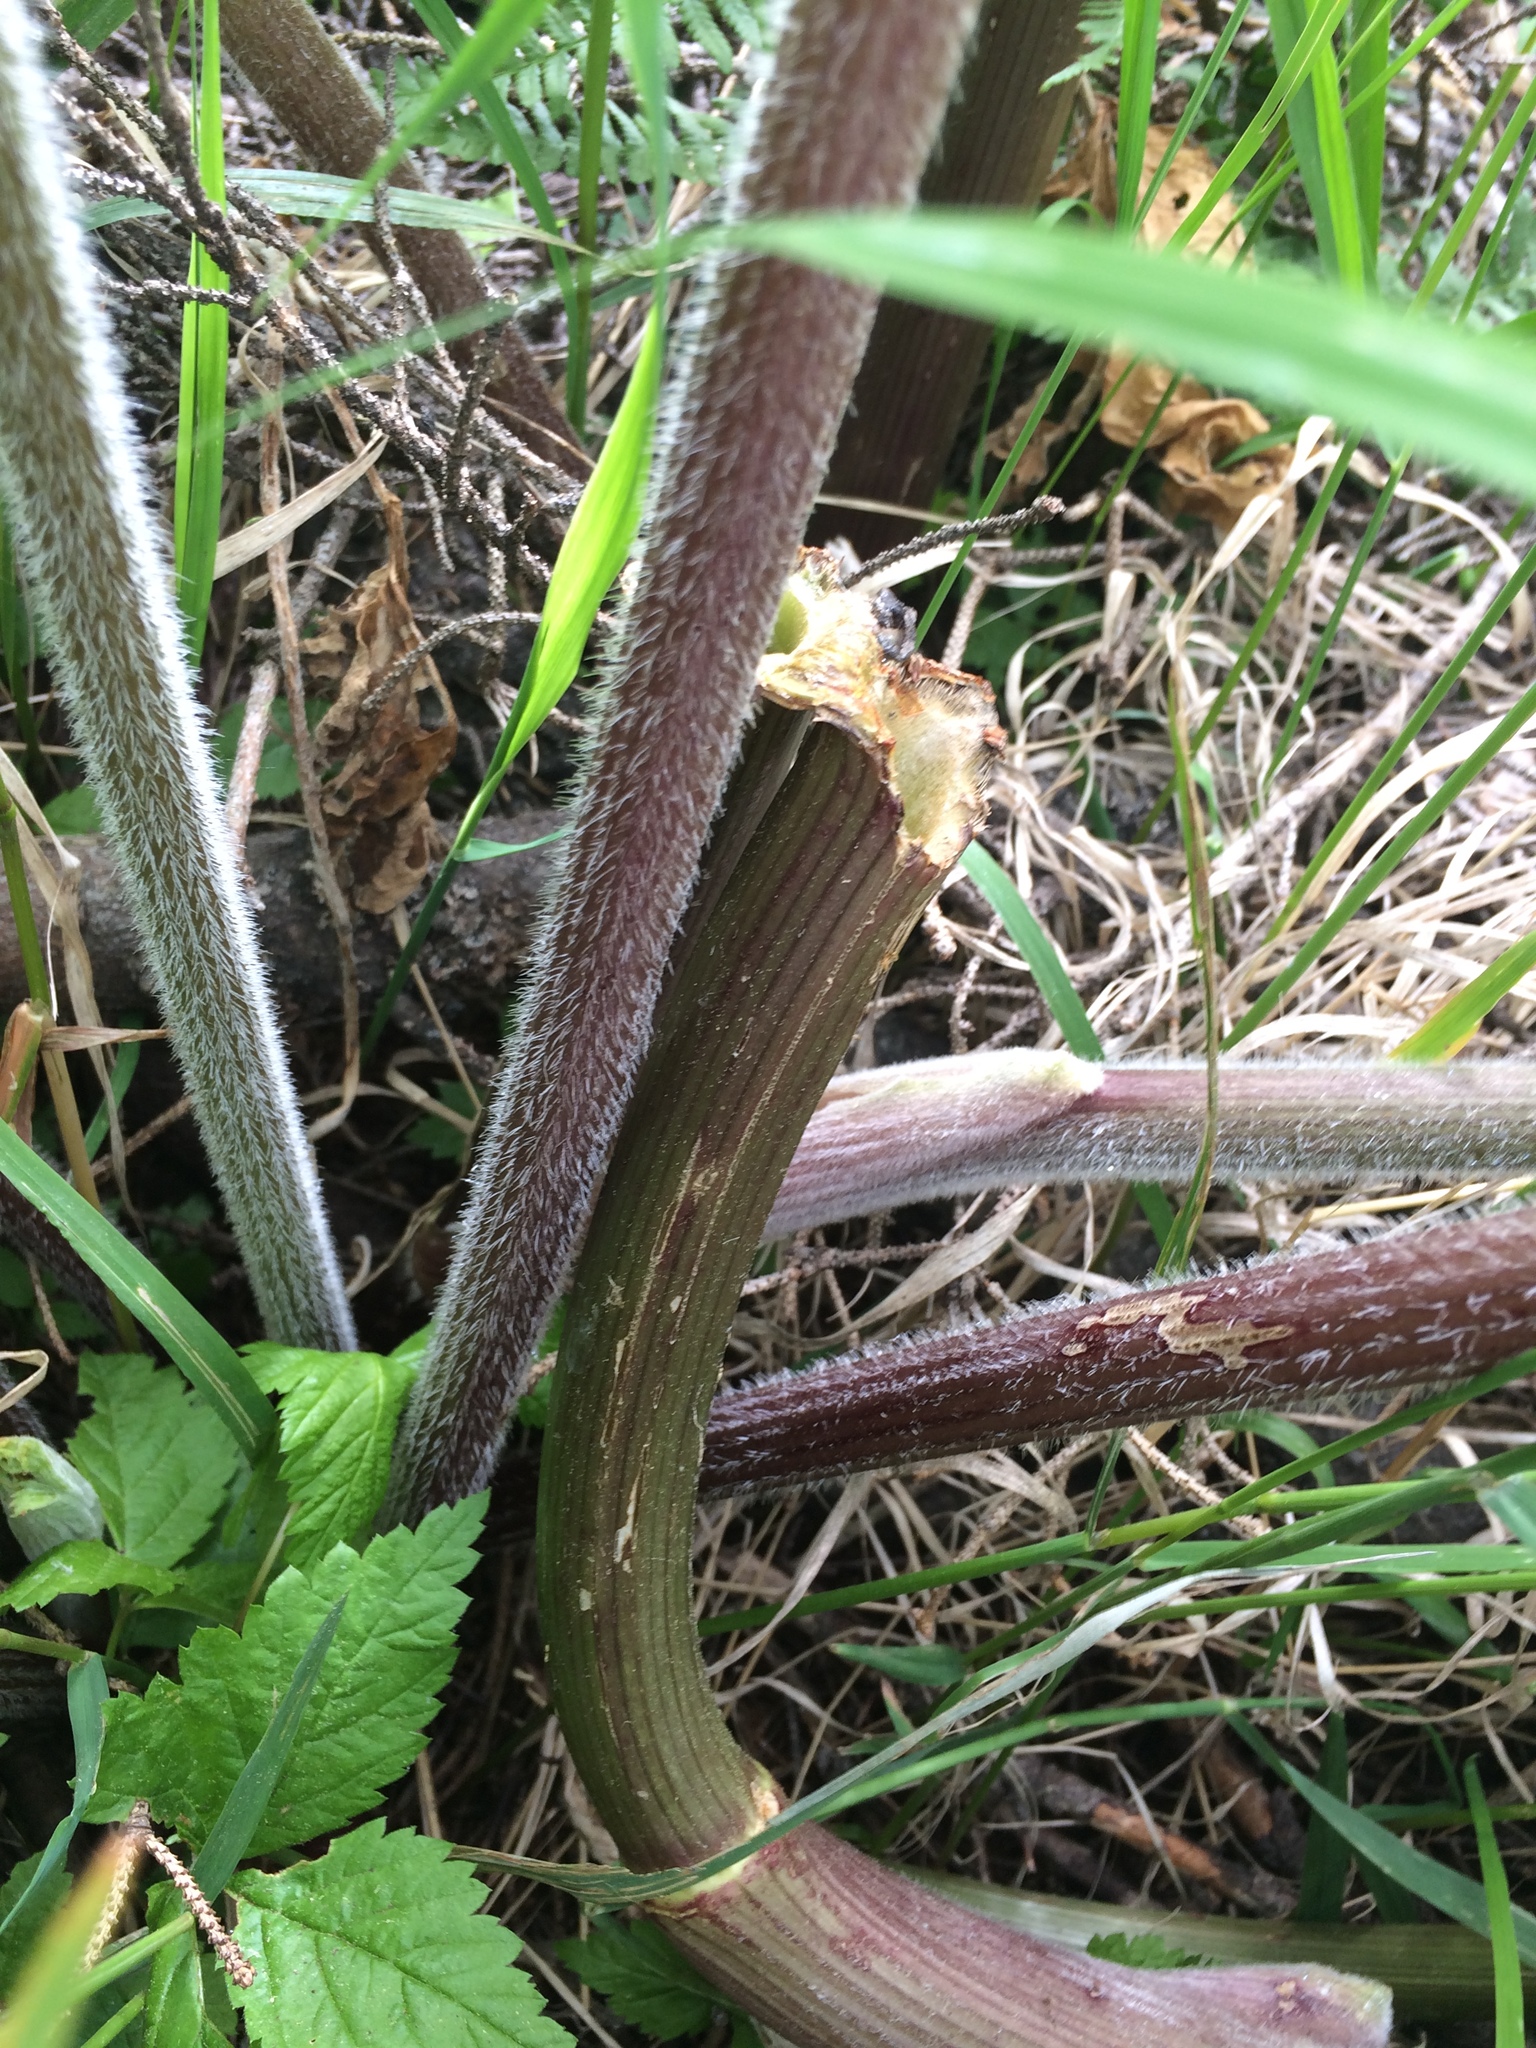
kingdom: Plantae
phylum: Tracheophyta
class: Magnoliopsida
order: Apiales
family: Apiaceae
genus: Heracleum
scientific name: Heracleum maximum
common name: American cow parsnip
